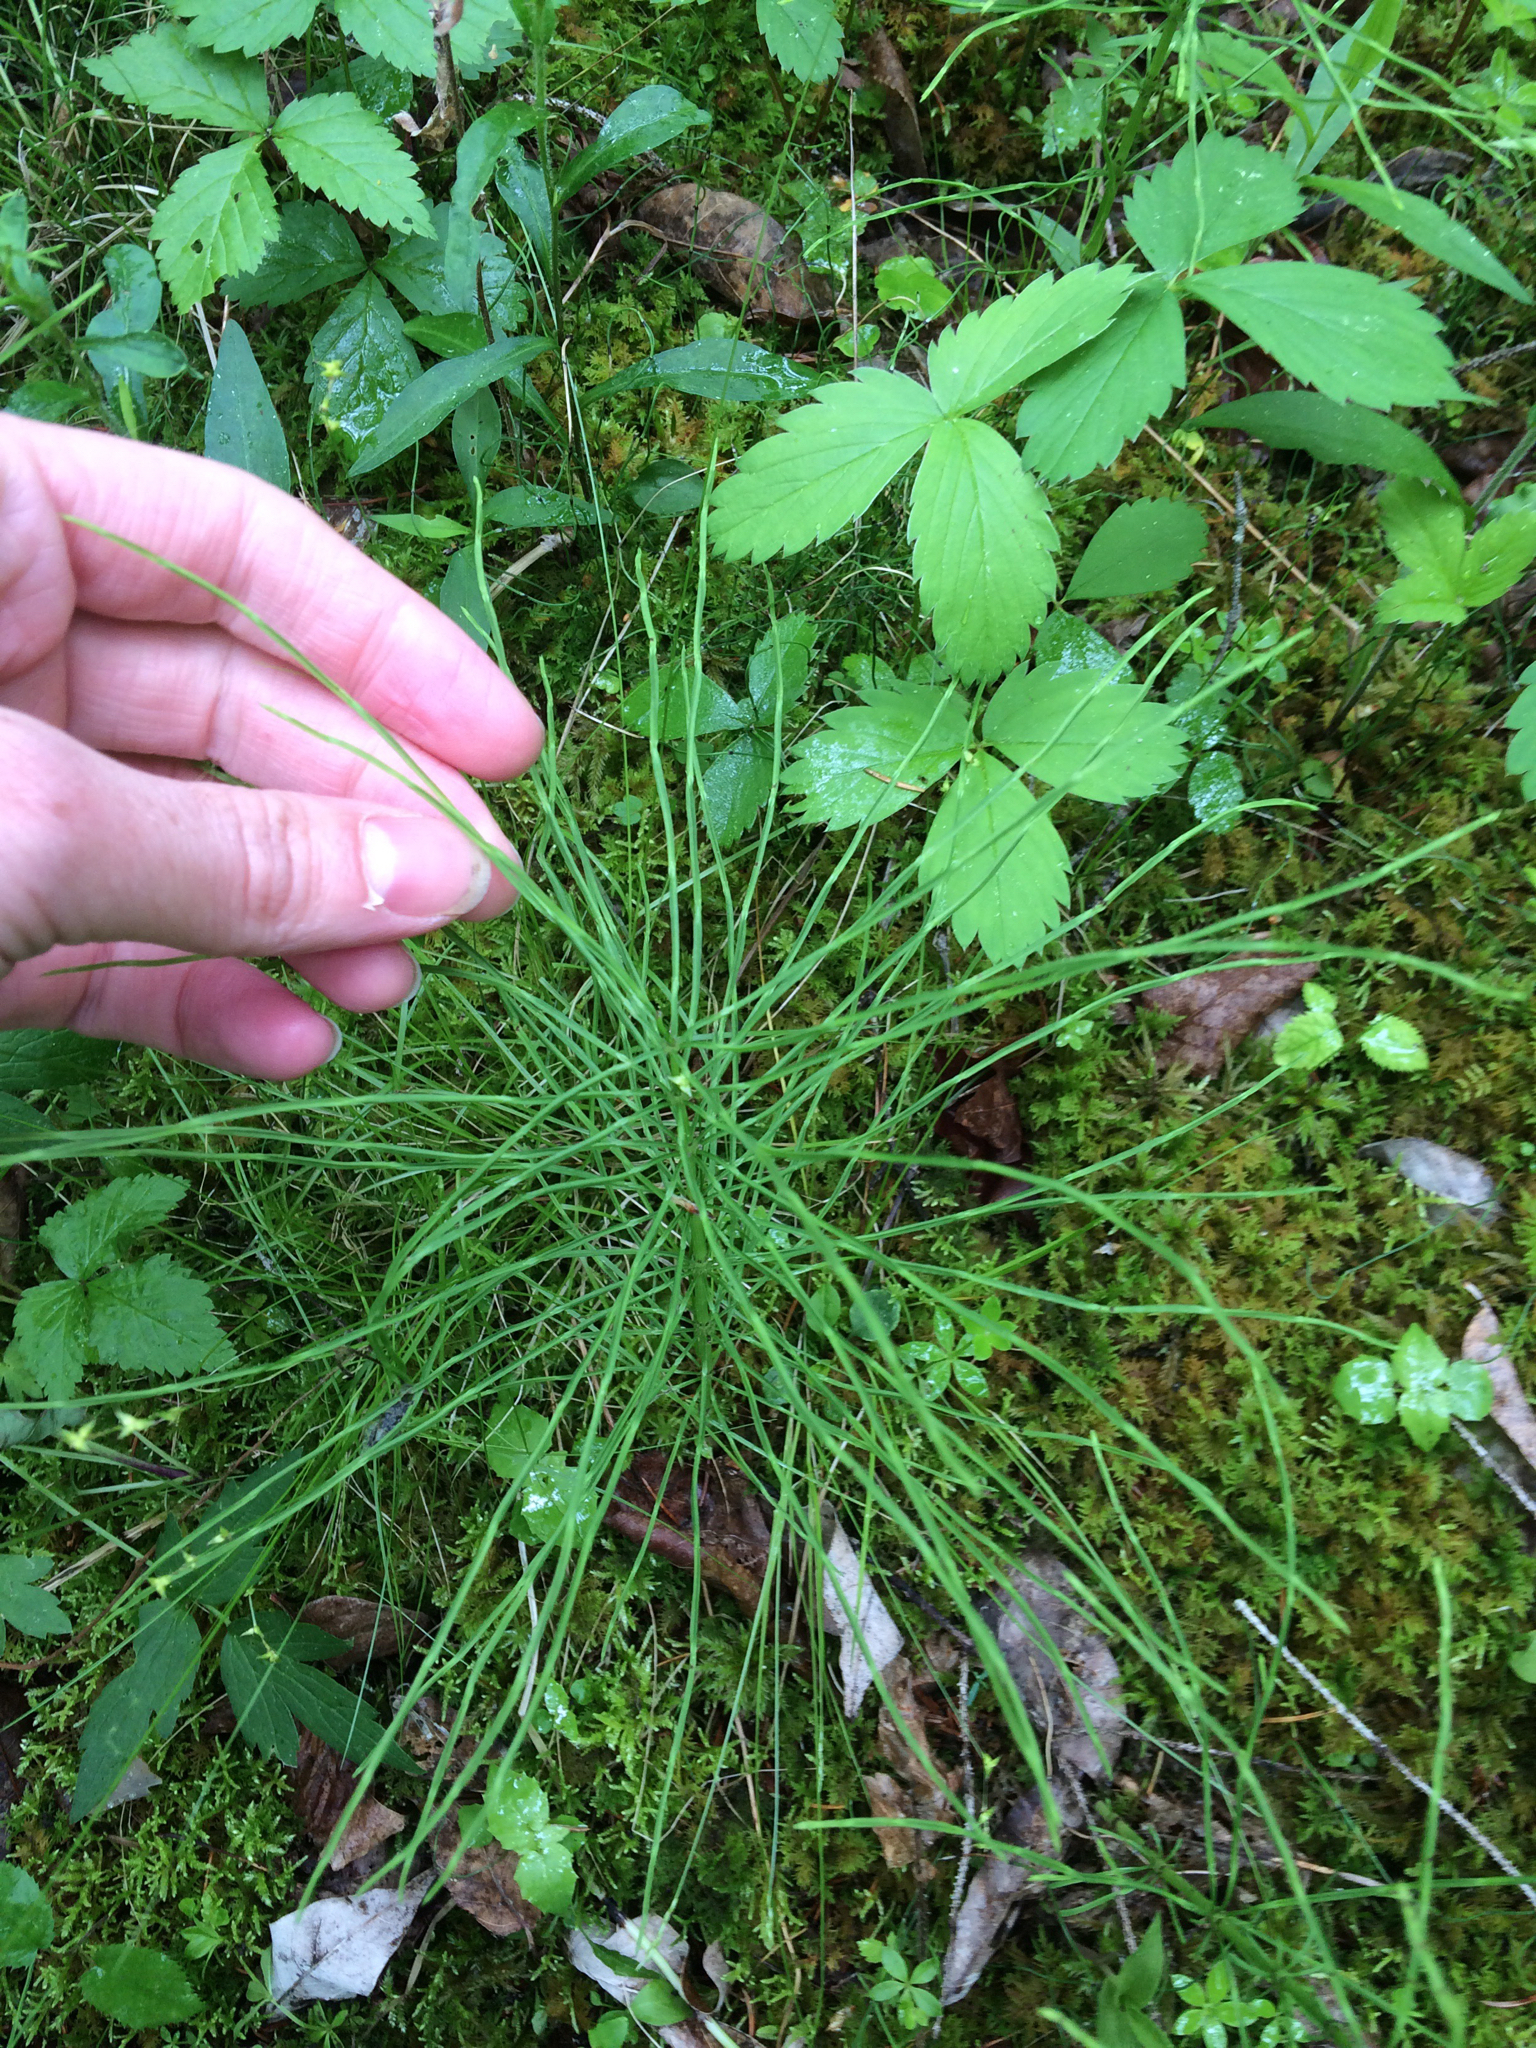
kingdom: Plantae
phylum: Tracheophyta
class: Polypodiopsida
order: Equisetales
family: Equisetaceae
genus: Equisetum
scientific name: Equisetum arvense
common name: Field horsetail
